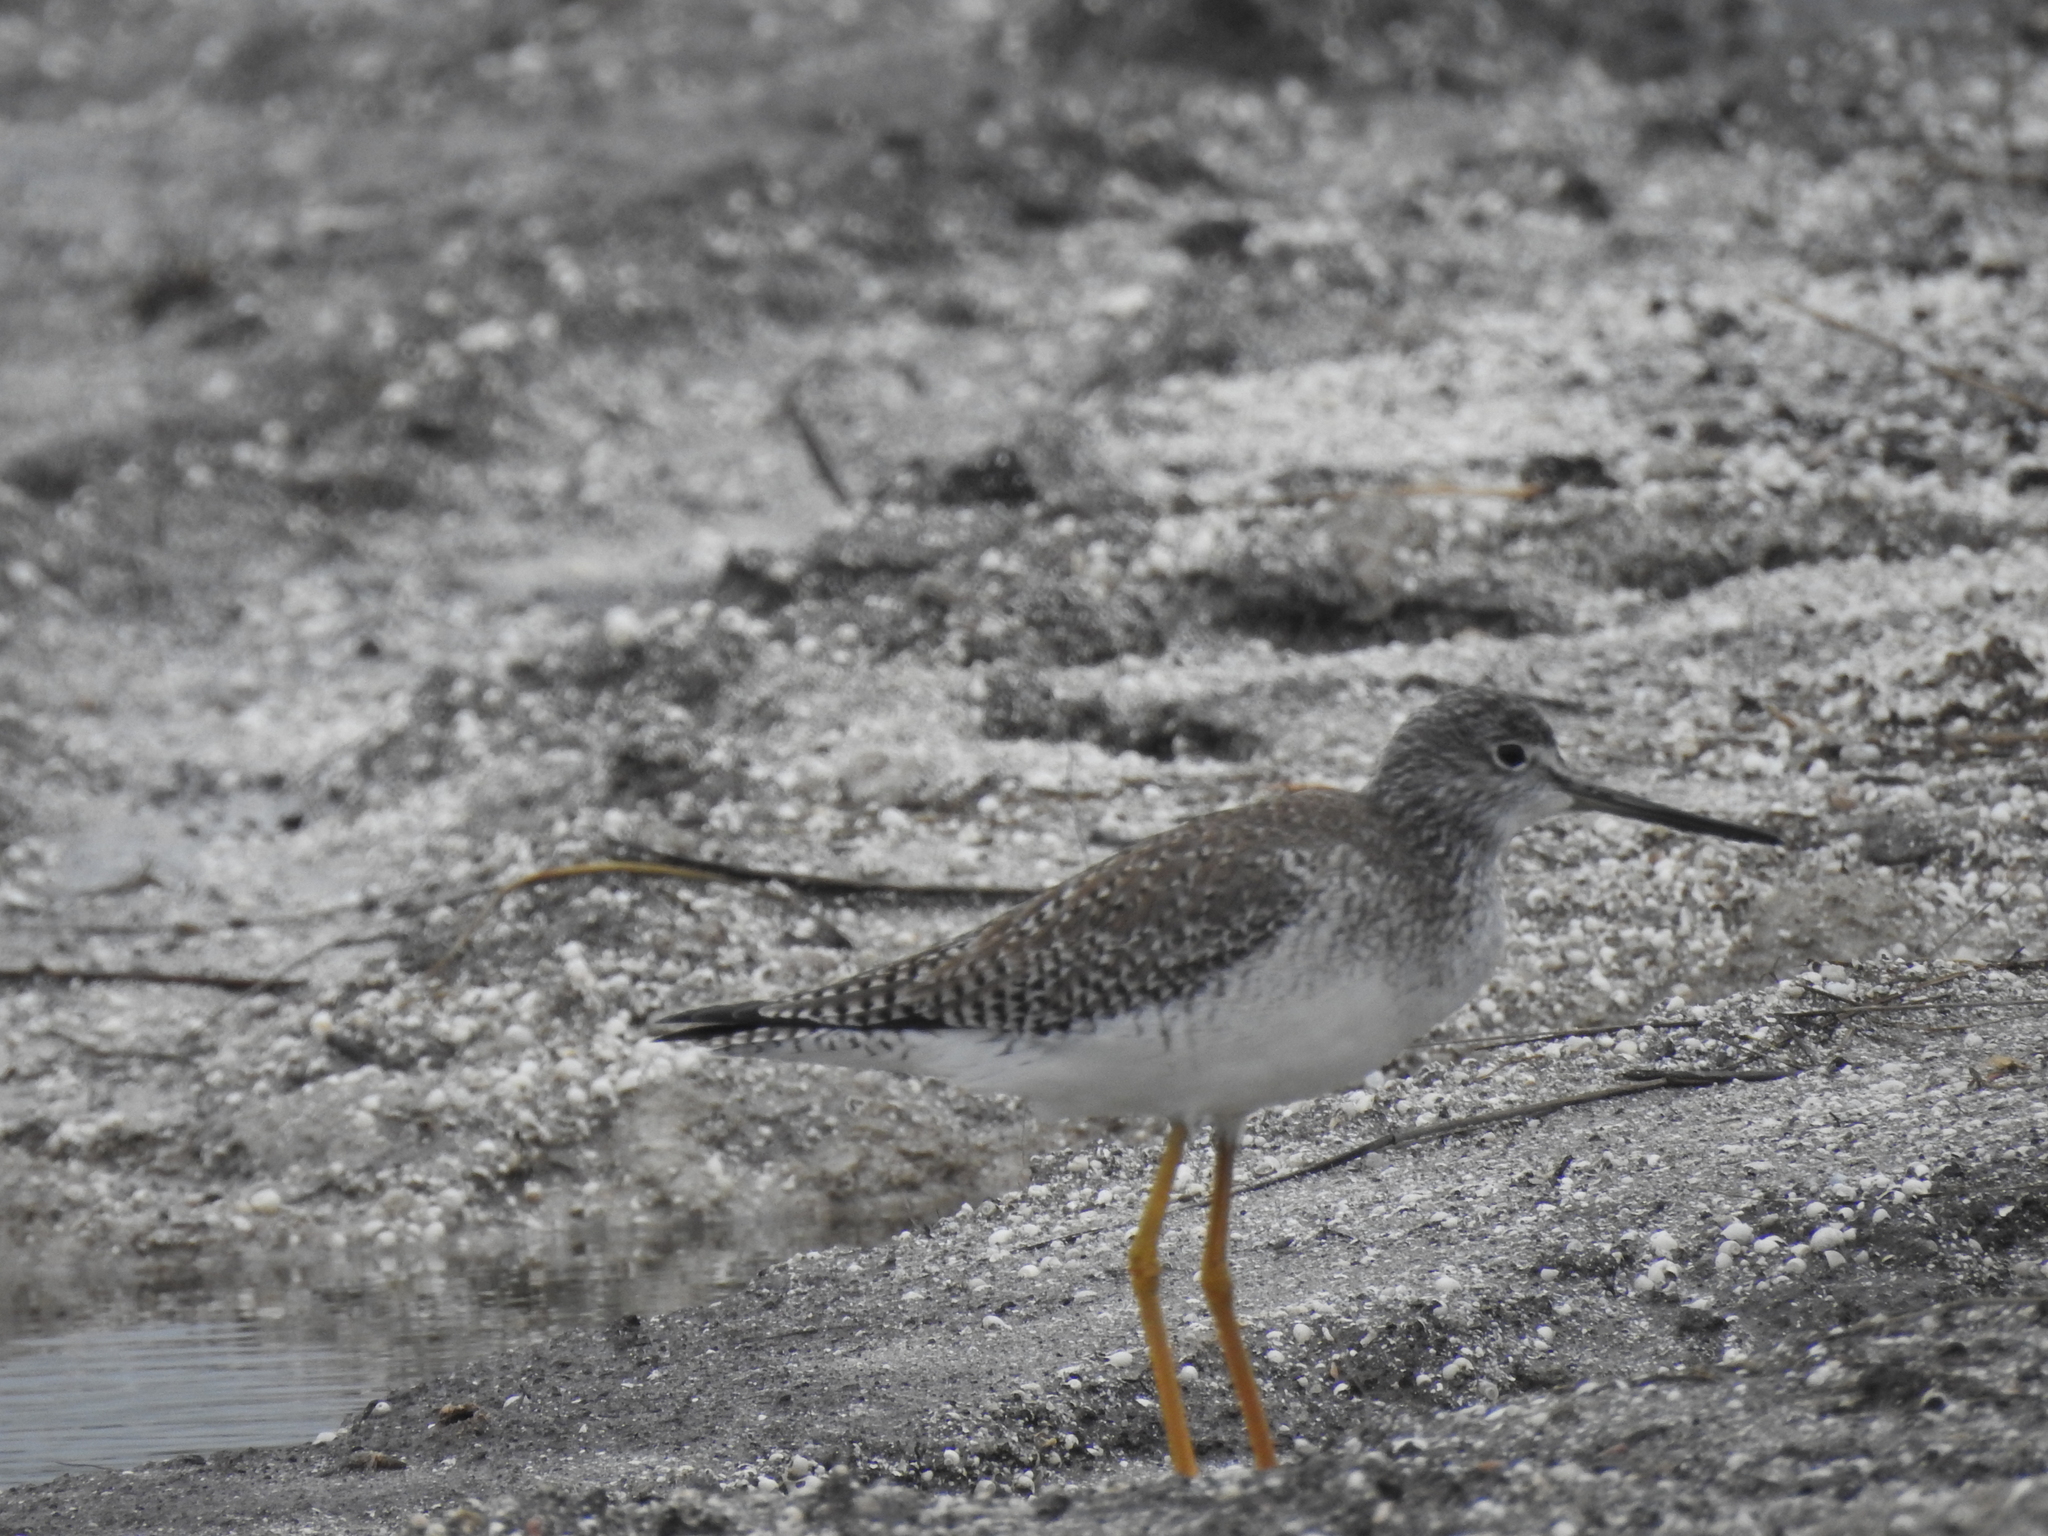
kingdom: Animalia
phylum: Chordata
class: Aves
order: Charadriiformes
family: Scolopacidae
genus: Tringa
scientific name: Tringa melanoleuca
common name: Greater yellowlegs
